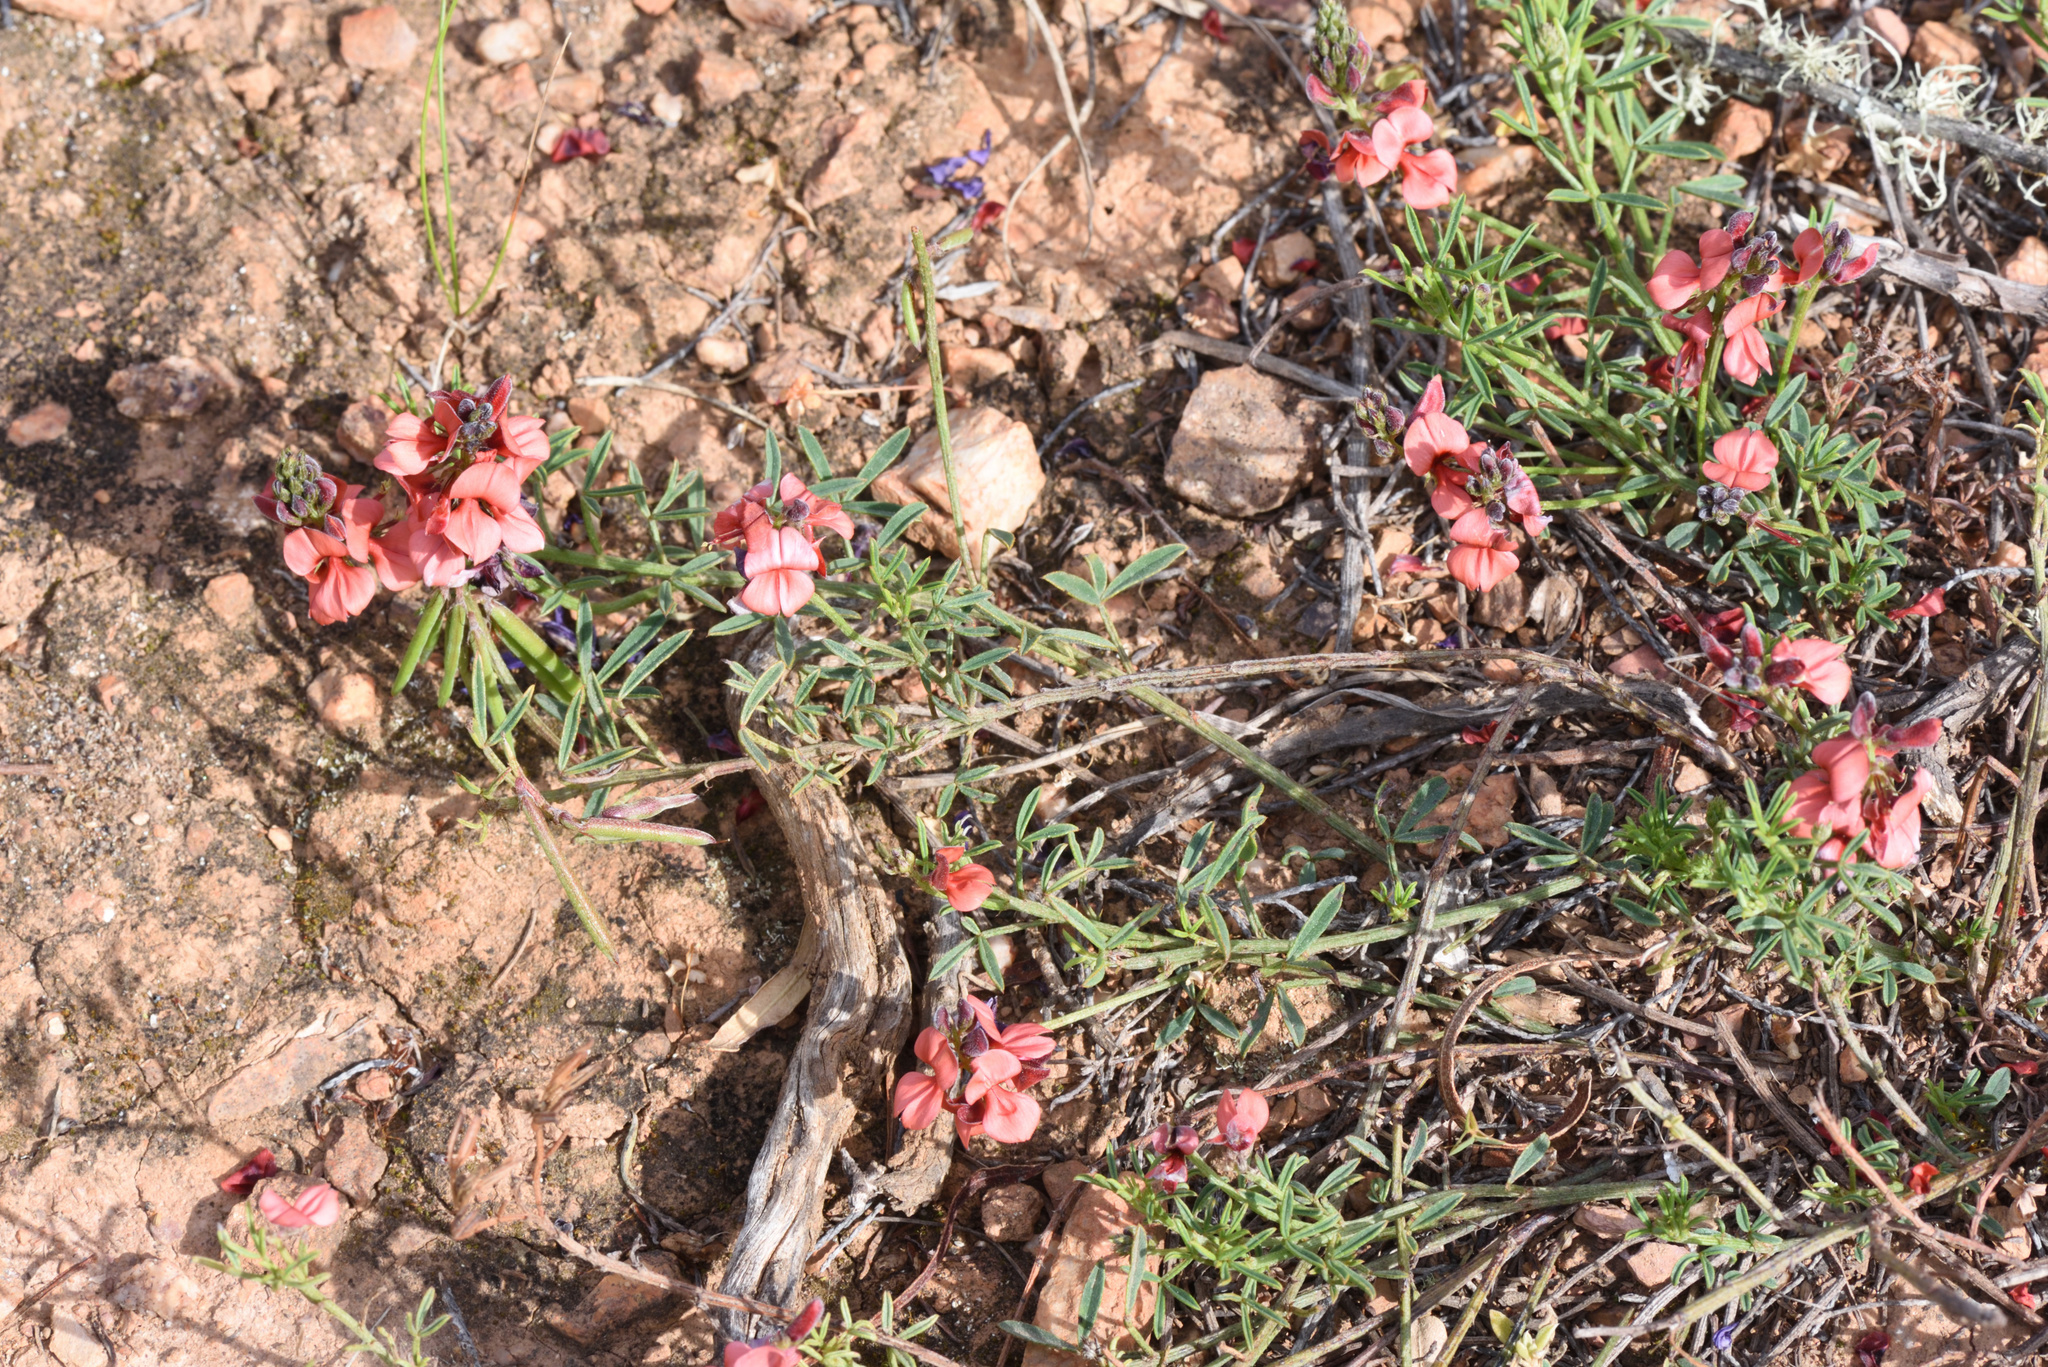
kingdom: Plantae
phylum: Tracheophyta
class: Magnoliopsida
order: Fabales
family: Fabaceae
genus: Indigofera
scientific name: Indigofera heterophylla
